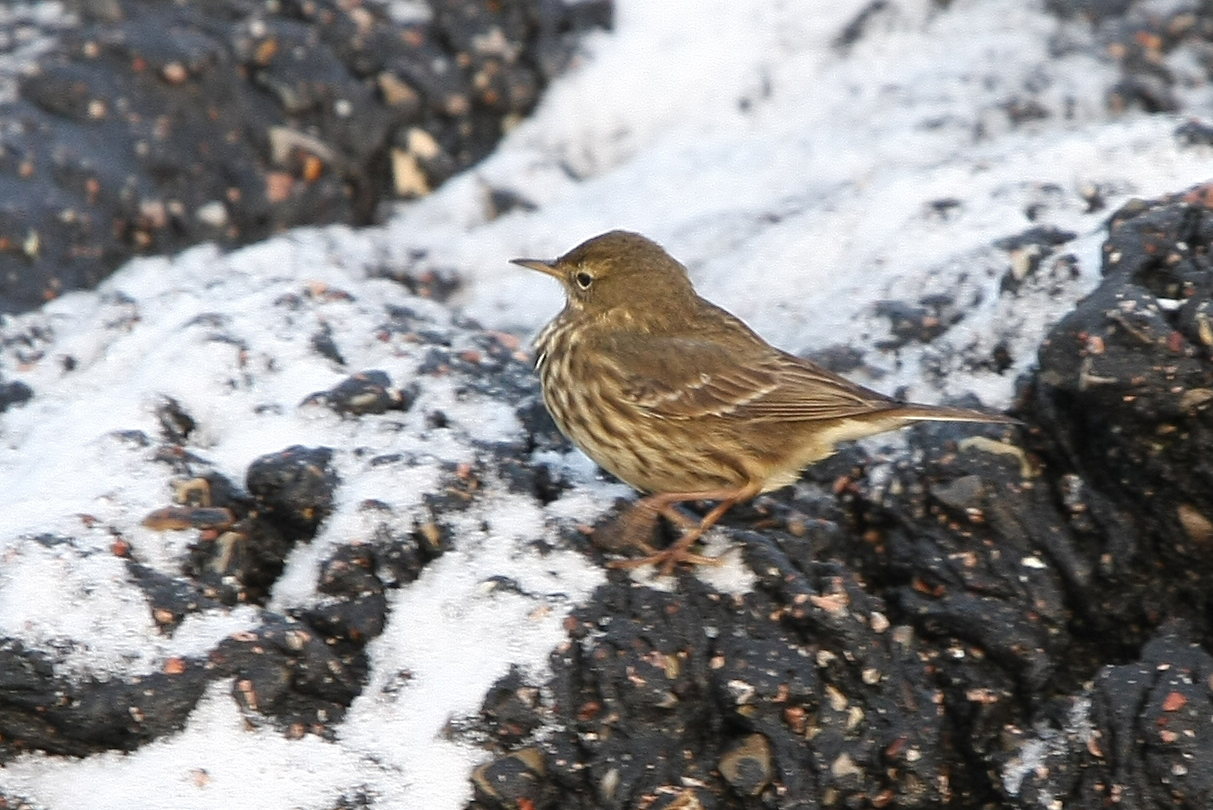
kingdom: Animalia
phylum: Chordata
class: Aves
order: Passeriformes
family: Motacillidae
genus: Anthus
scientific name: Anthus petrosus
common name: Eurasian rock pipit
